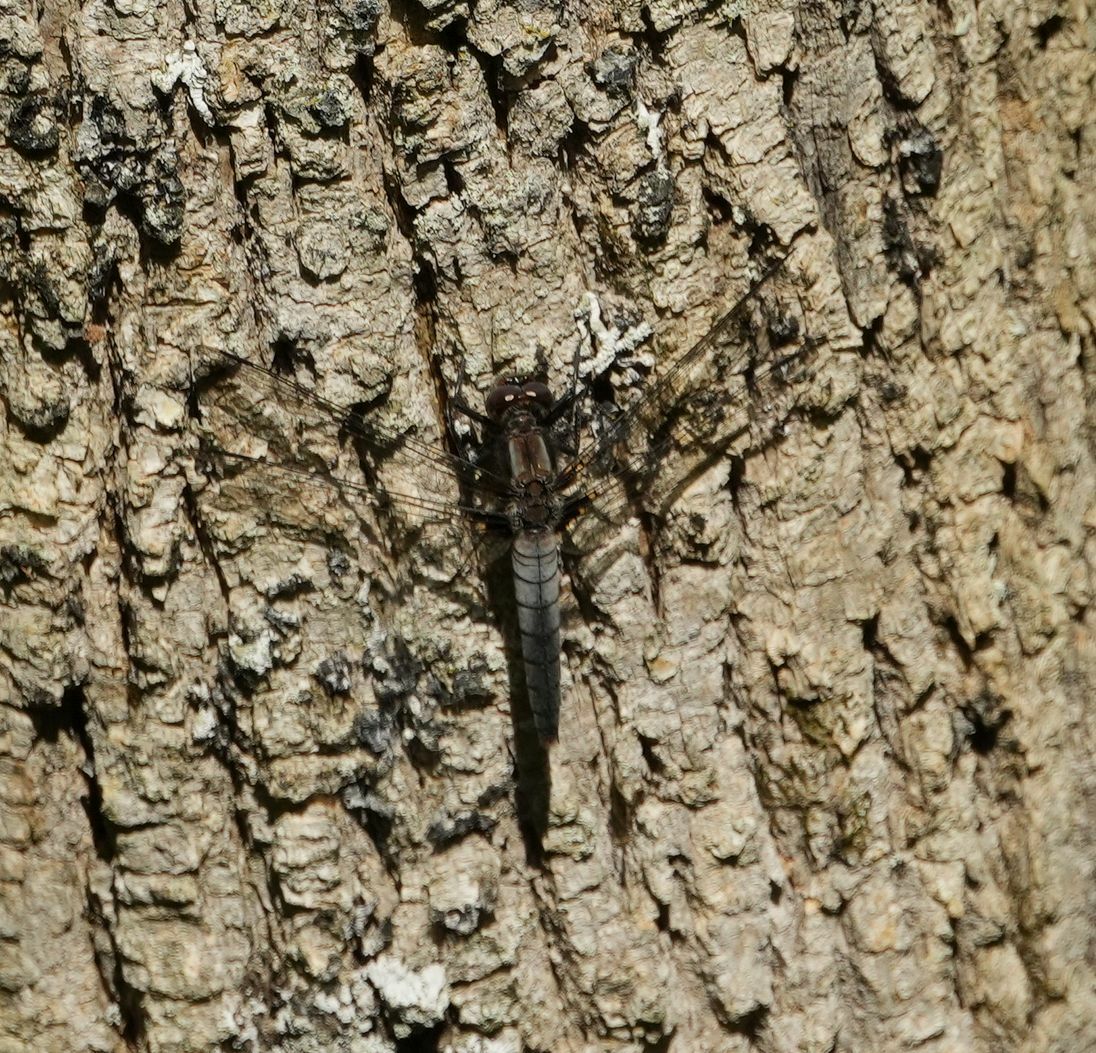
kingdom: Animalia
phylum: Arthropoda
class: Insecta
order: Odonata
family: Libellulidae
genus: Ladona
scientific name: Ladona julia
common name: Chalk-fronted corporal
